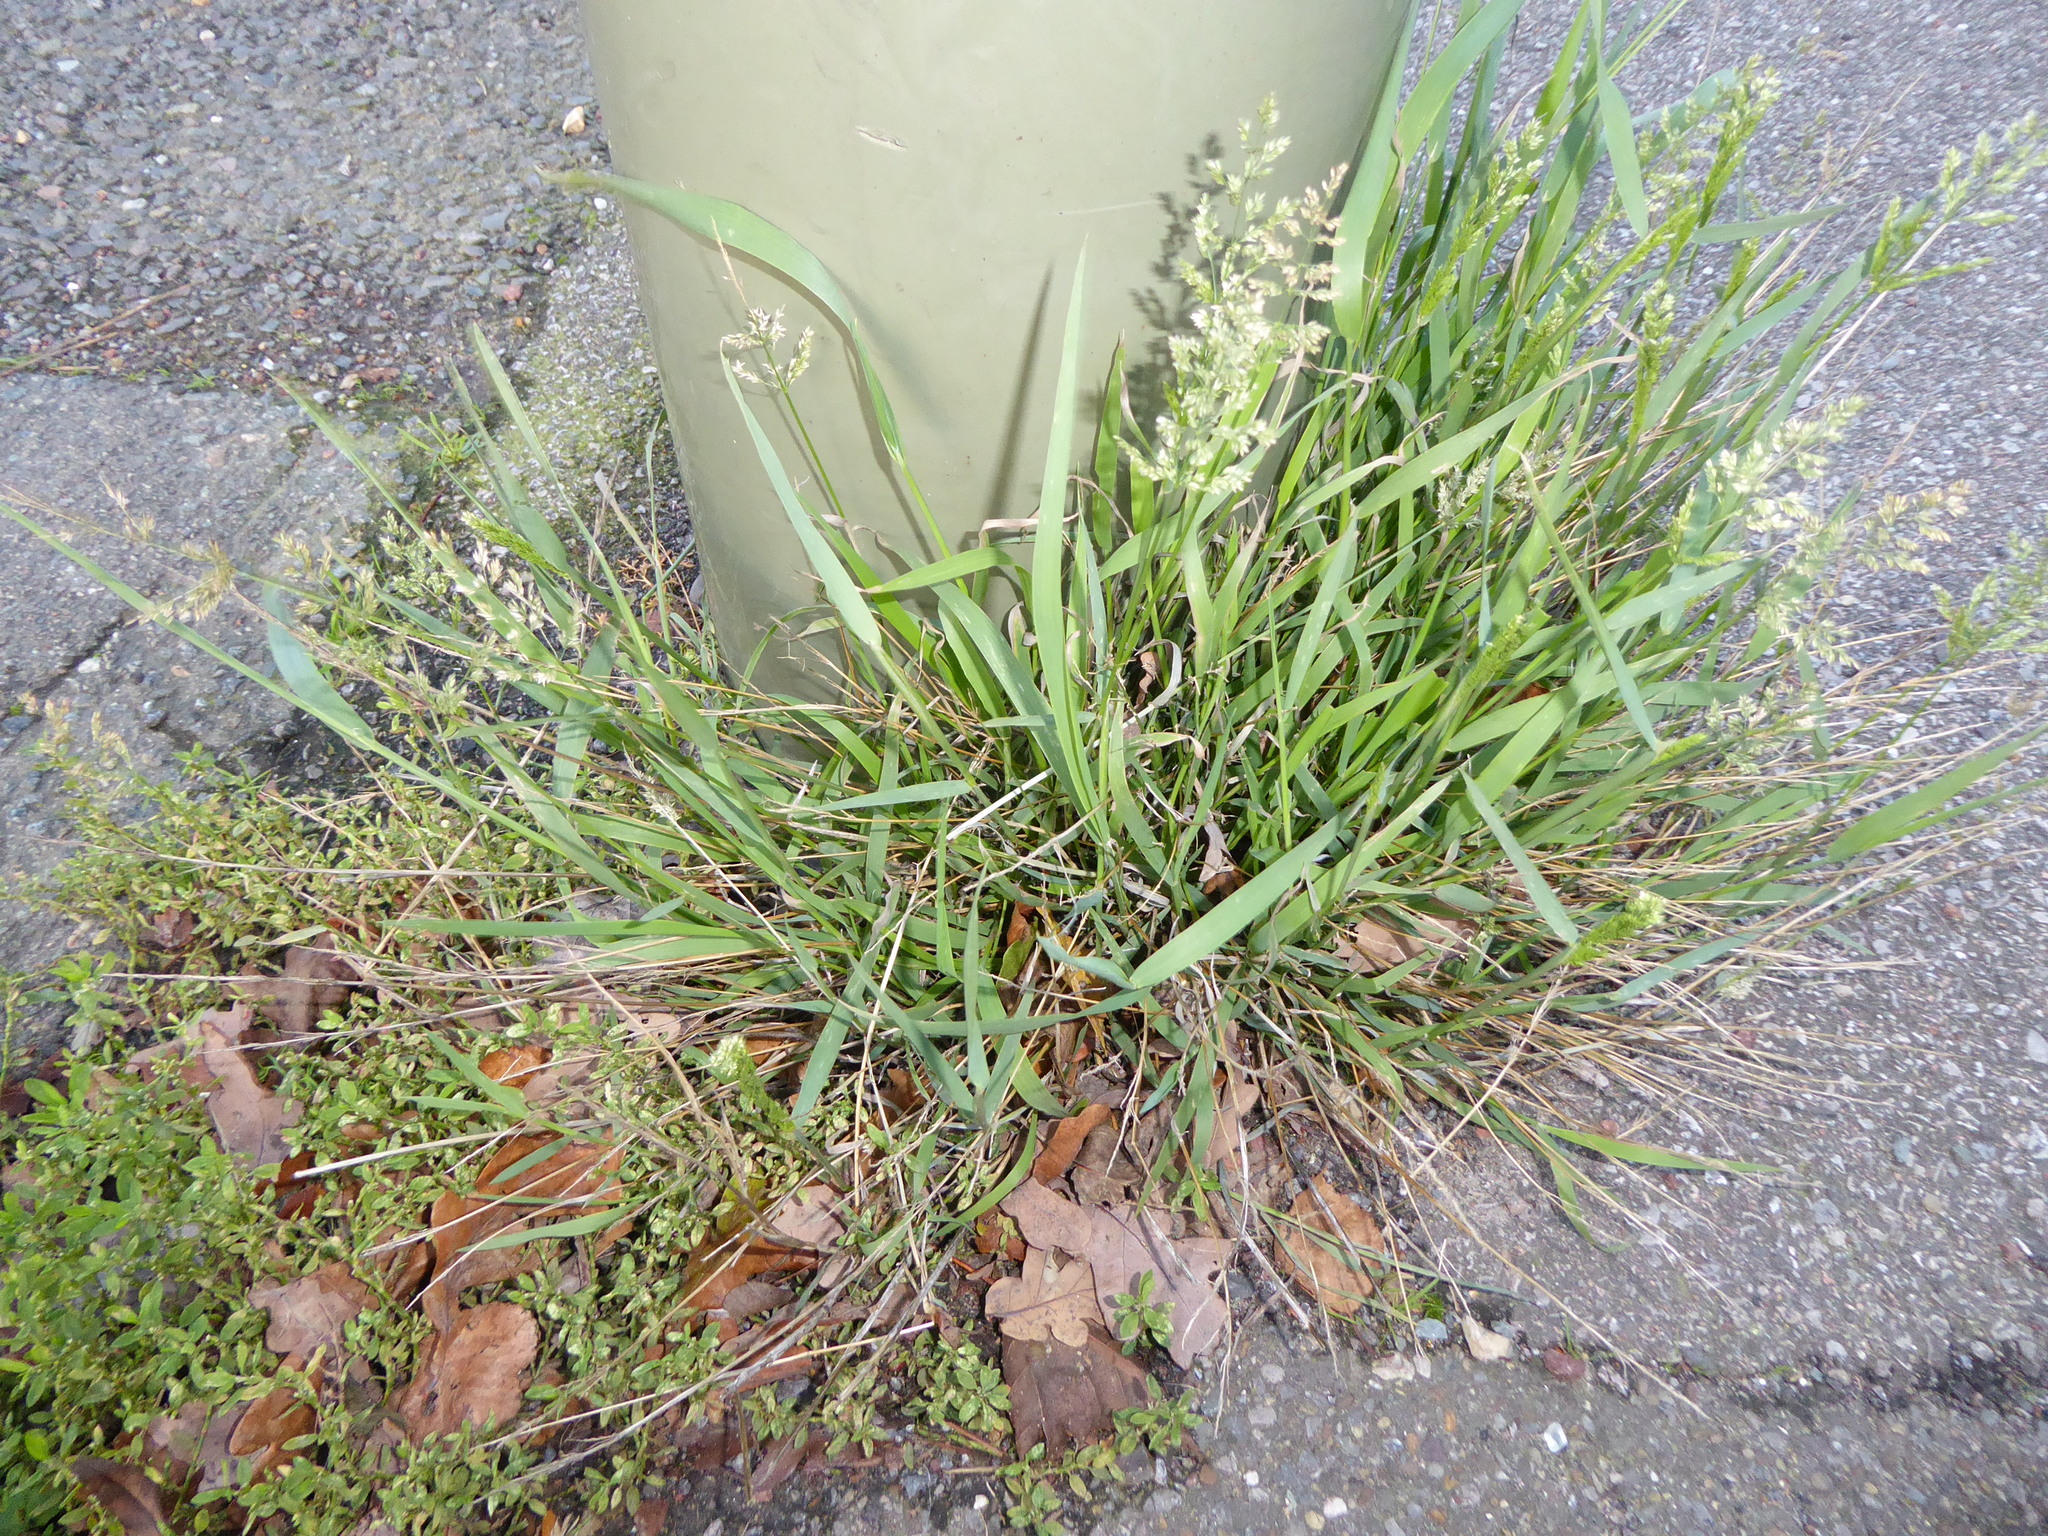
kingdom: Plantae
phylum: Tracheophyta
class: Liliopsida
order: Poales
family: Poaceae
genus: Polypogon
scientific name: Polypogon viridis
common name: Water bent
